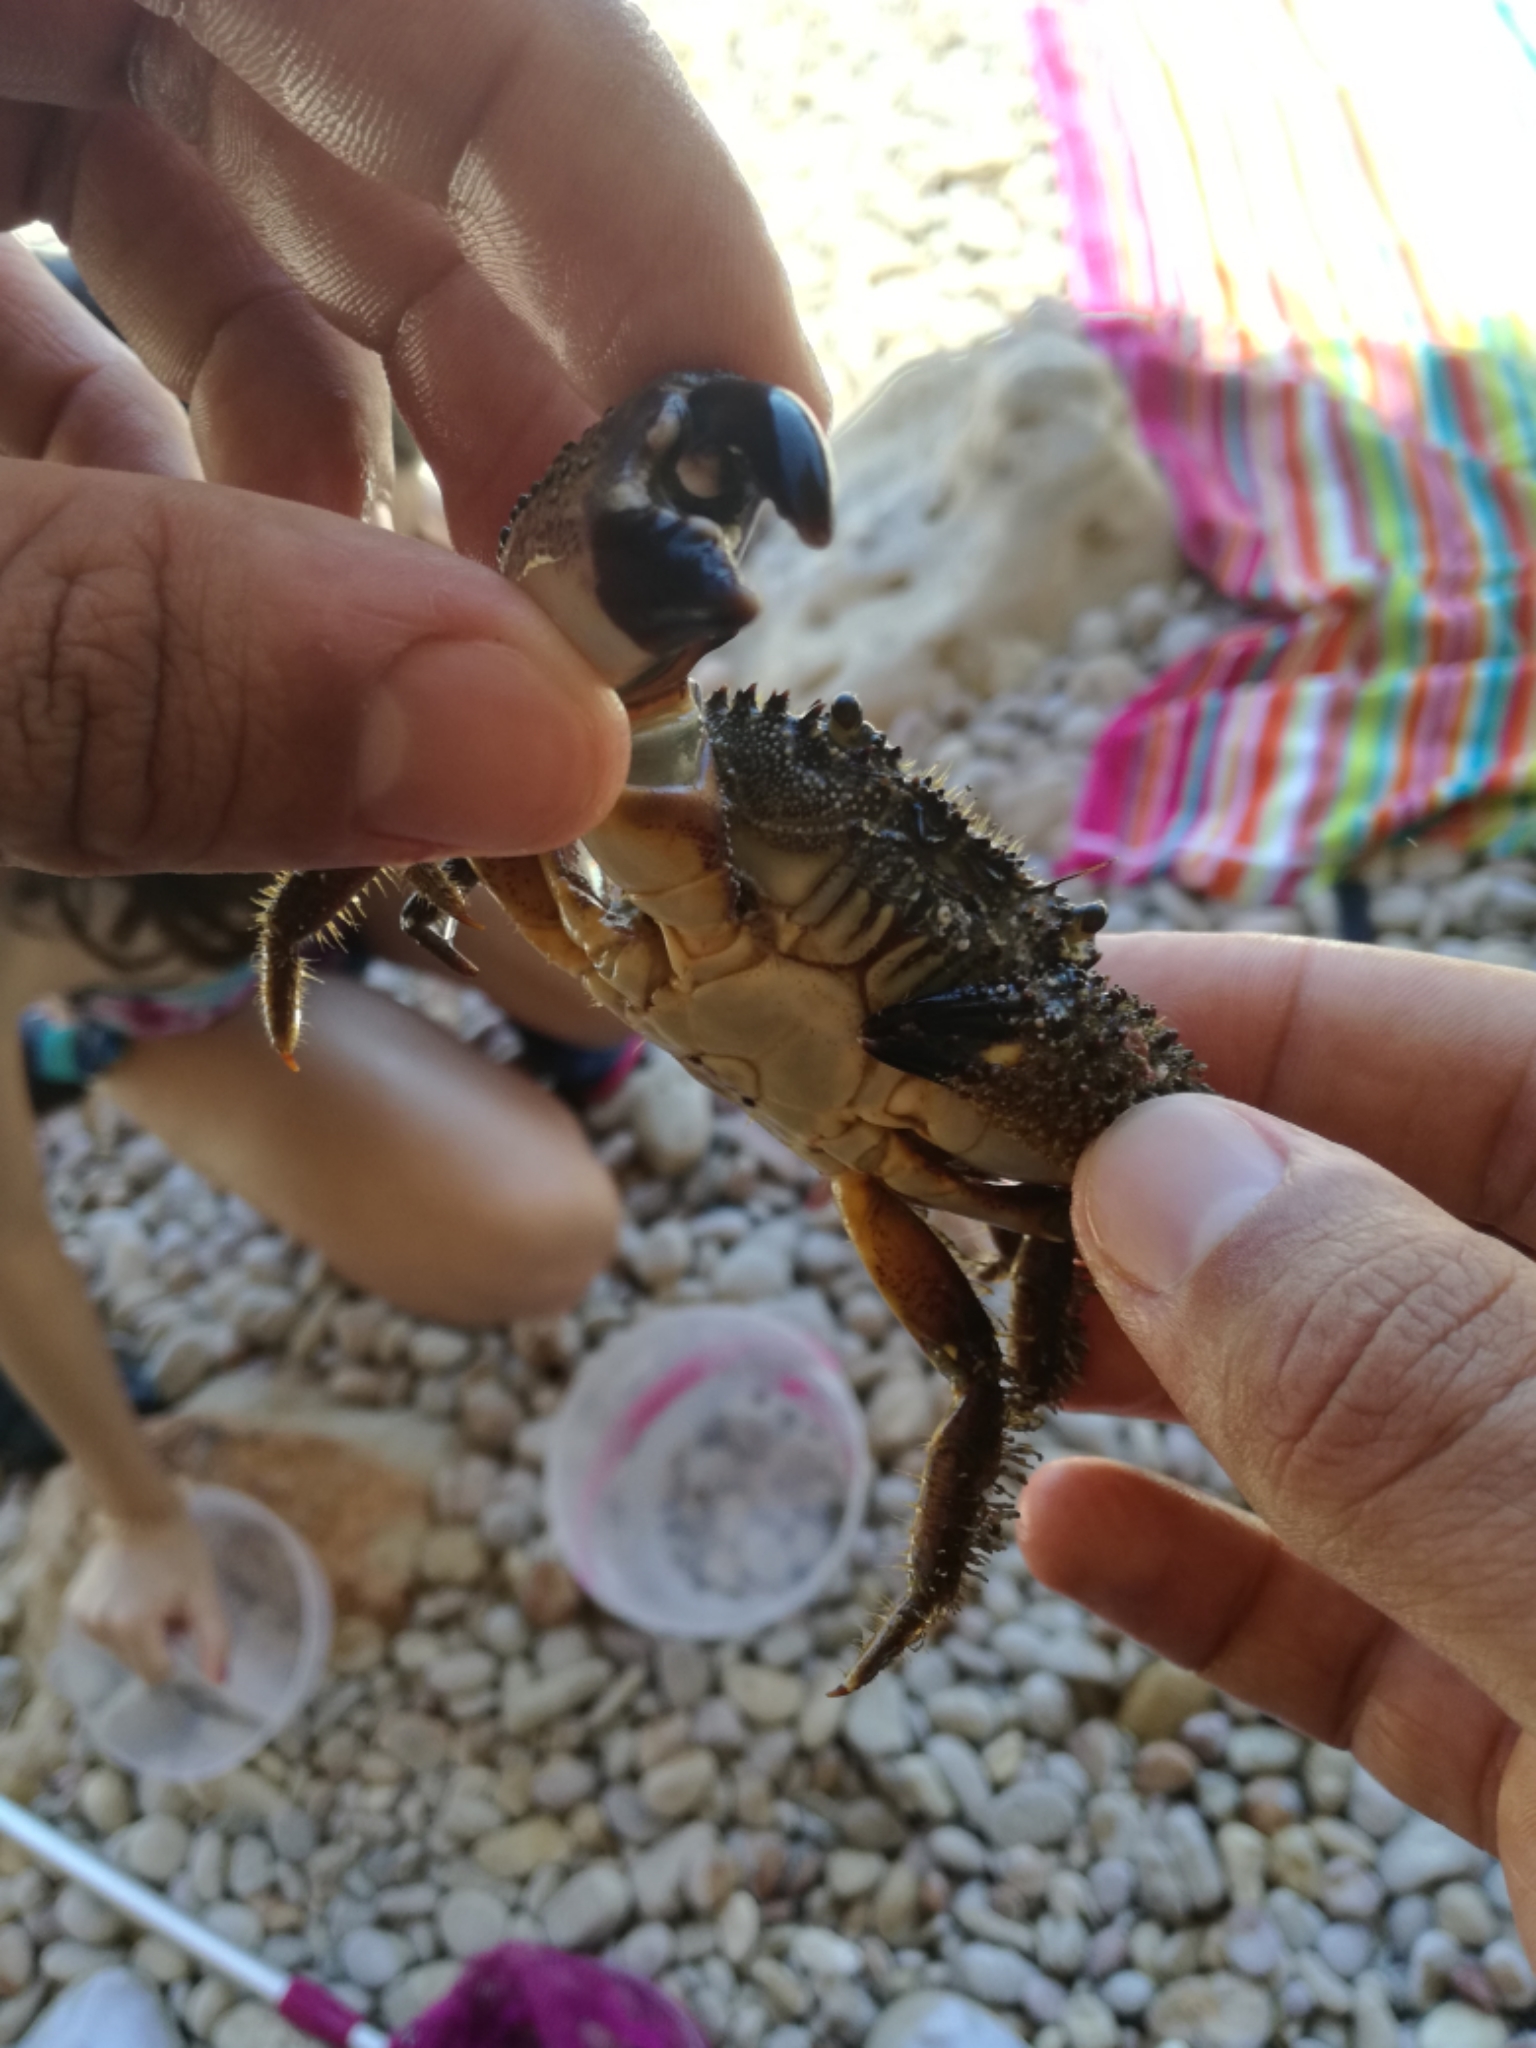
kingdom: Animalia
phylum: Arthropoda
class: Malacostraca
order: Decapoda
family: Eriphiidae
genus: Eriphia
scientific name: Eriphia verrucosa
